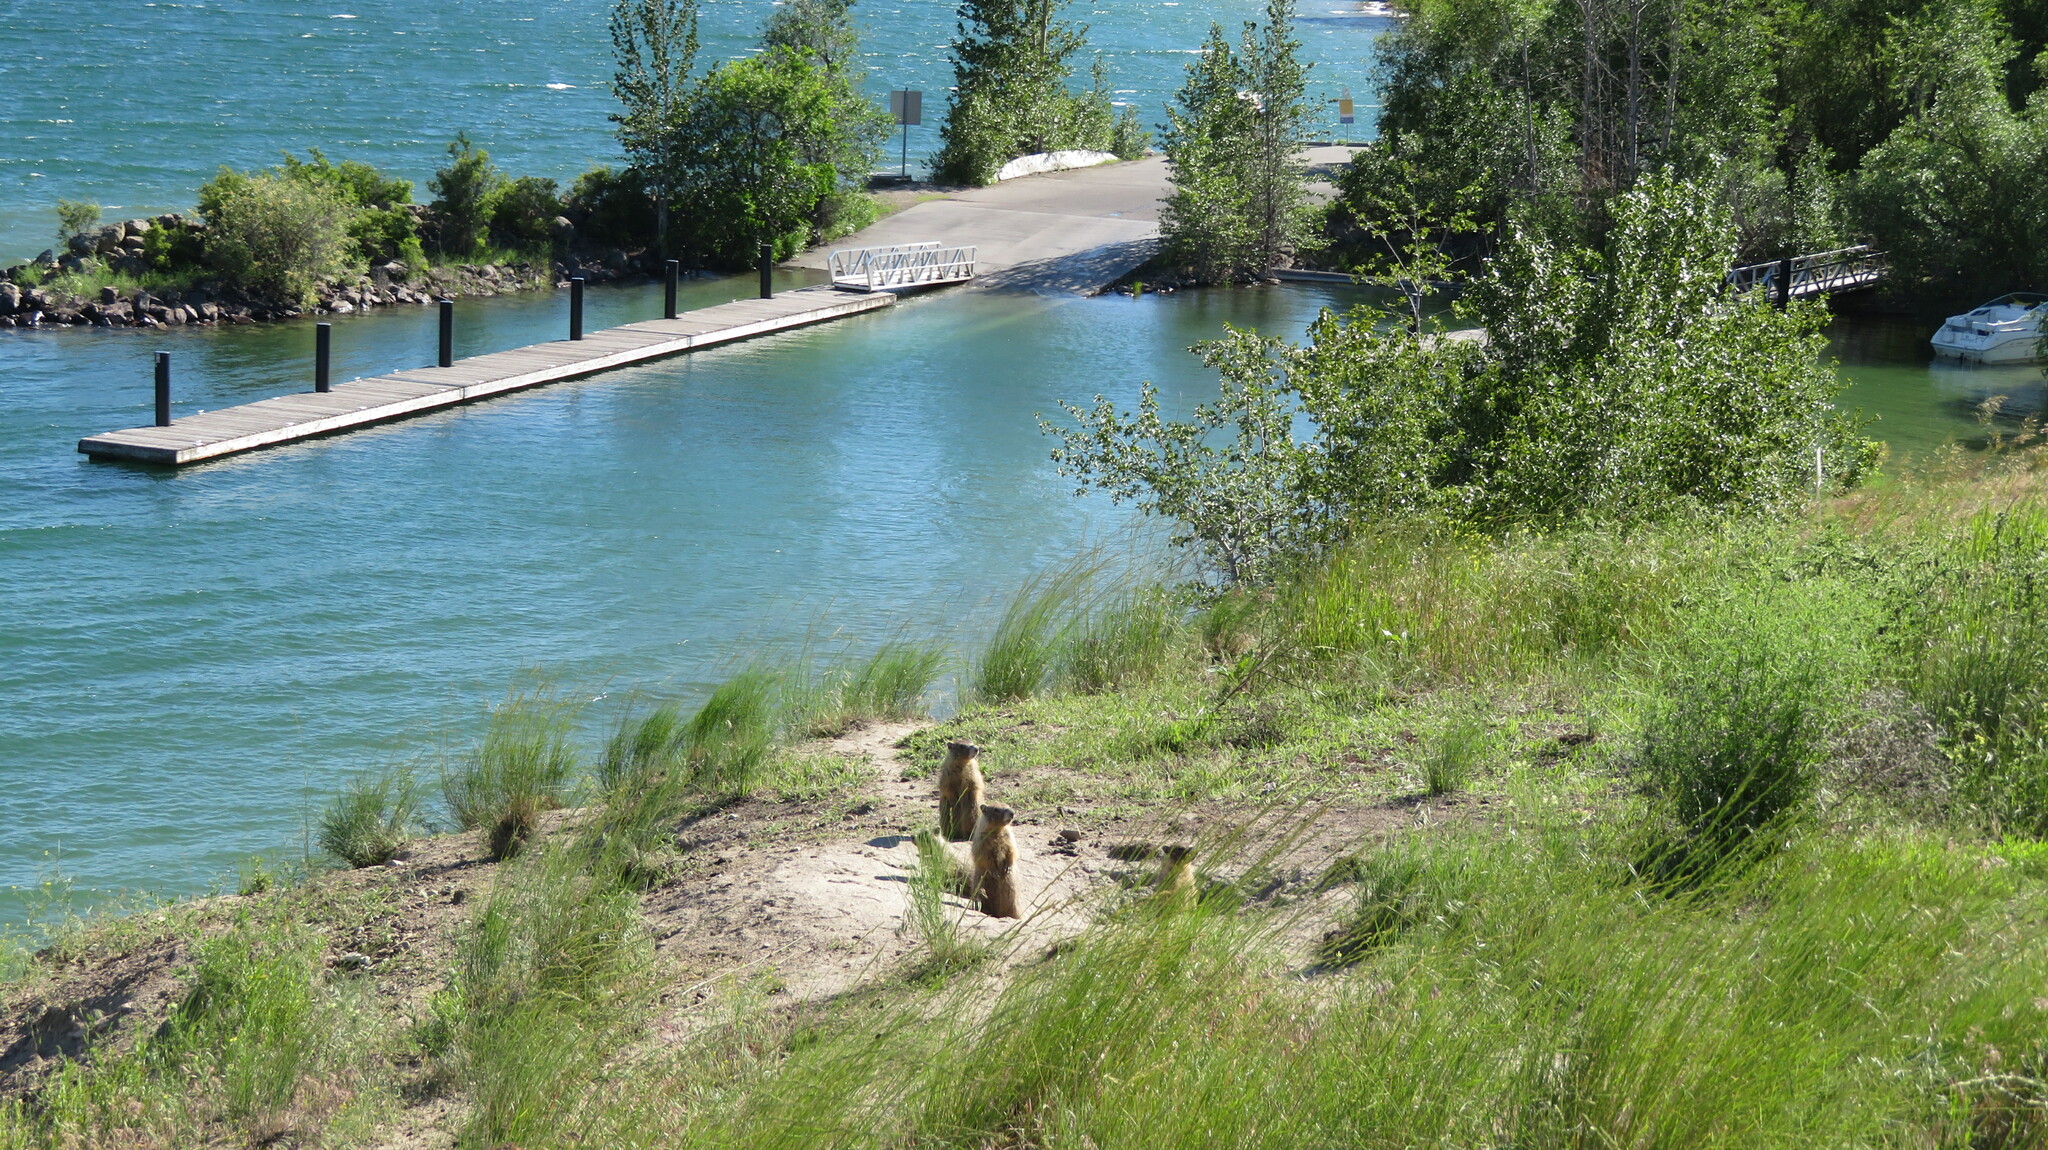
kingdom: Animalia
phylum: Chordata
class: Mammalia
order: Rodentia
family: Sciuridae
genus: Marmota
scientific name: Marmota flaviventris
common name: Yellow-bellied marmot
